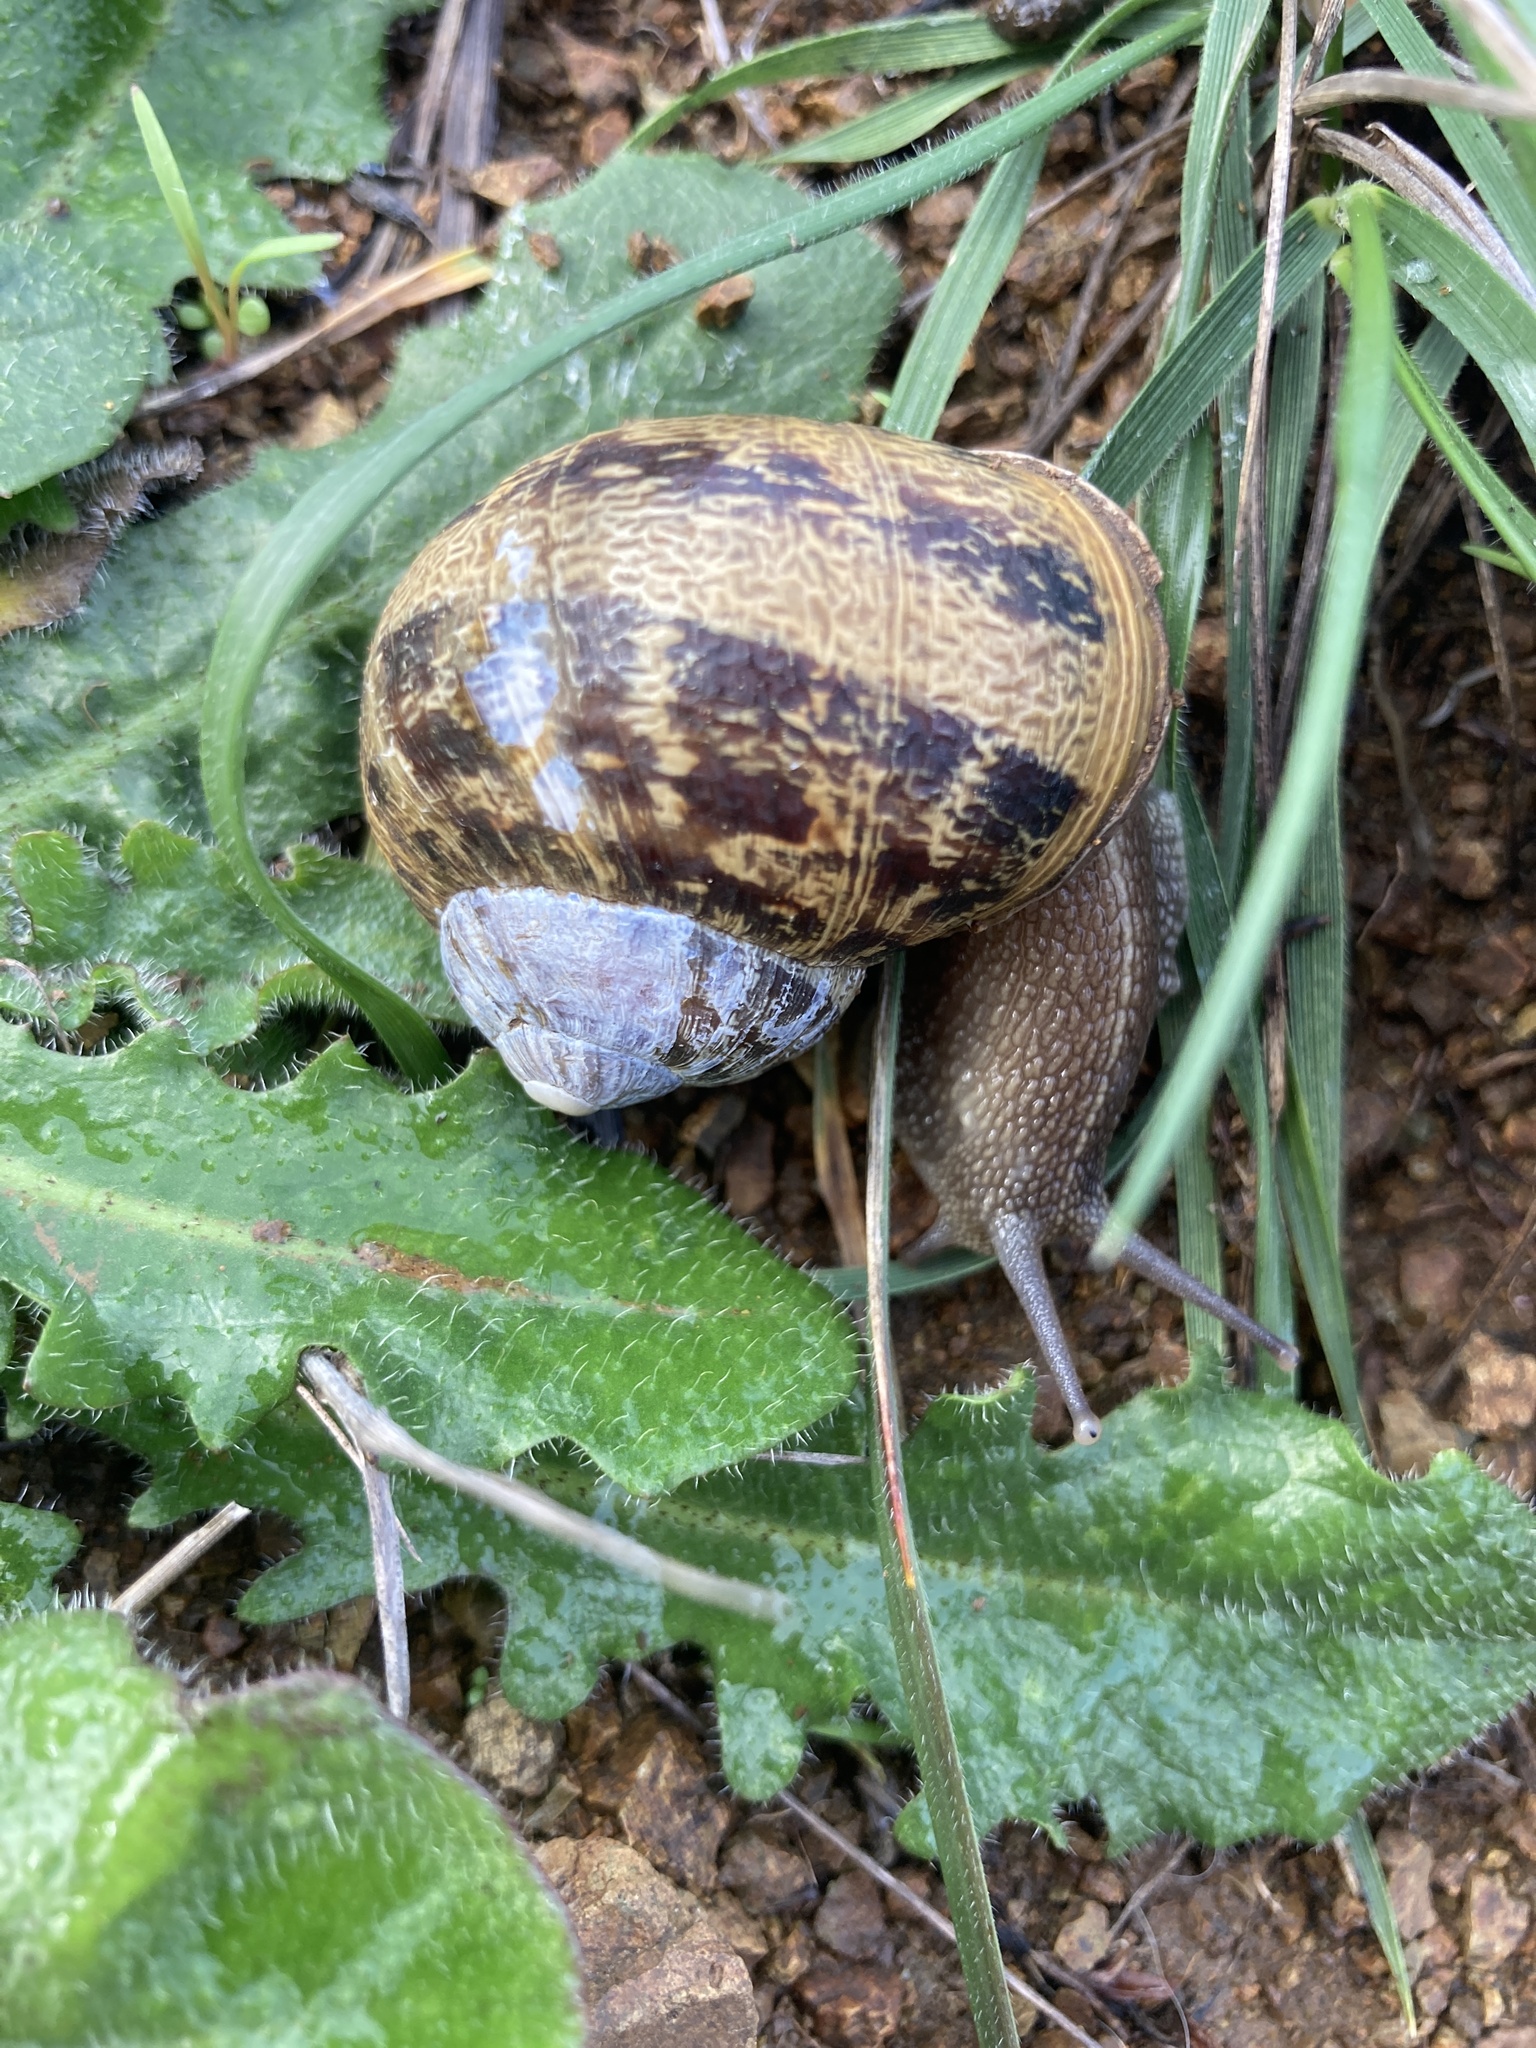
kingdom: Animalia
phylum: Mollusca
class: Gastropoda
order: Stylommatophora
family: Helicidae
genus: Cornu
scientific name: Cornu aspersum
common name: Brown garden snail
